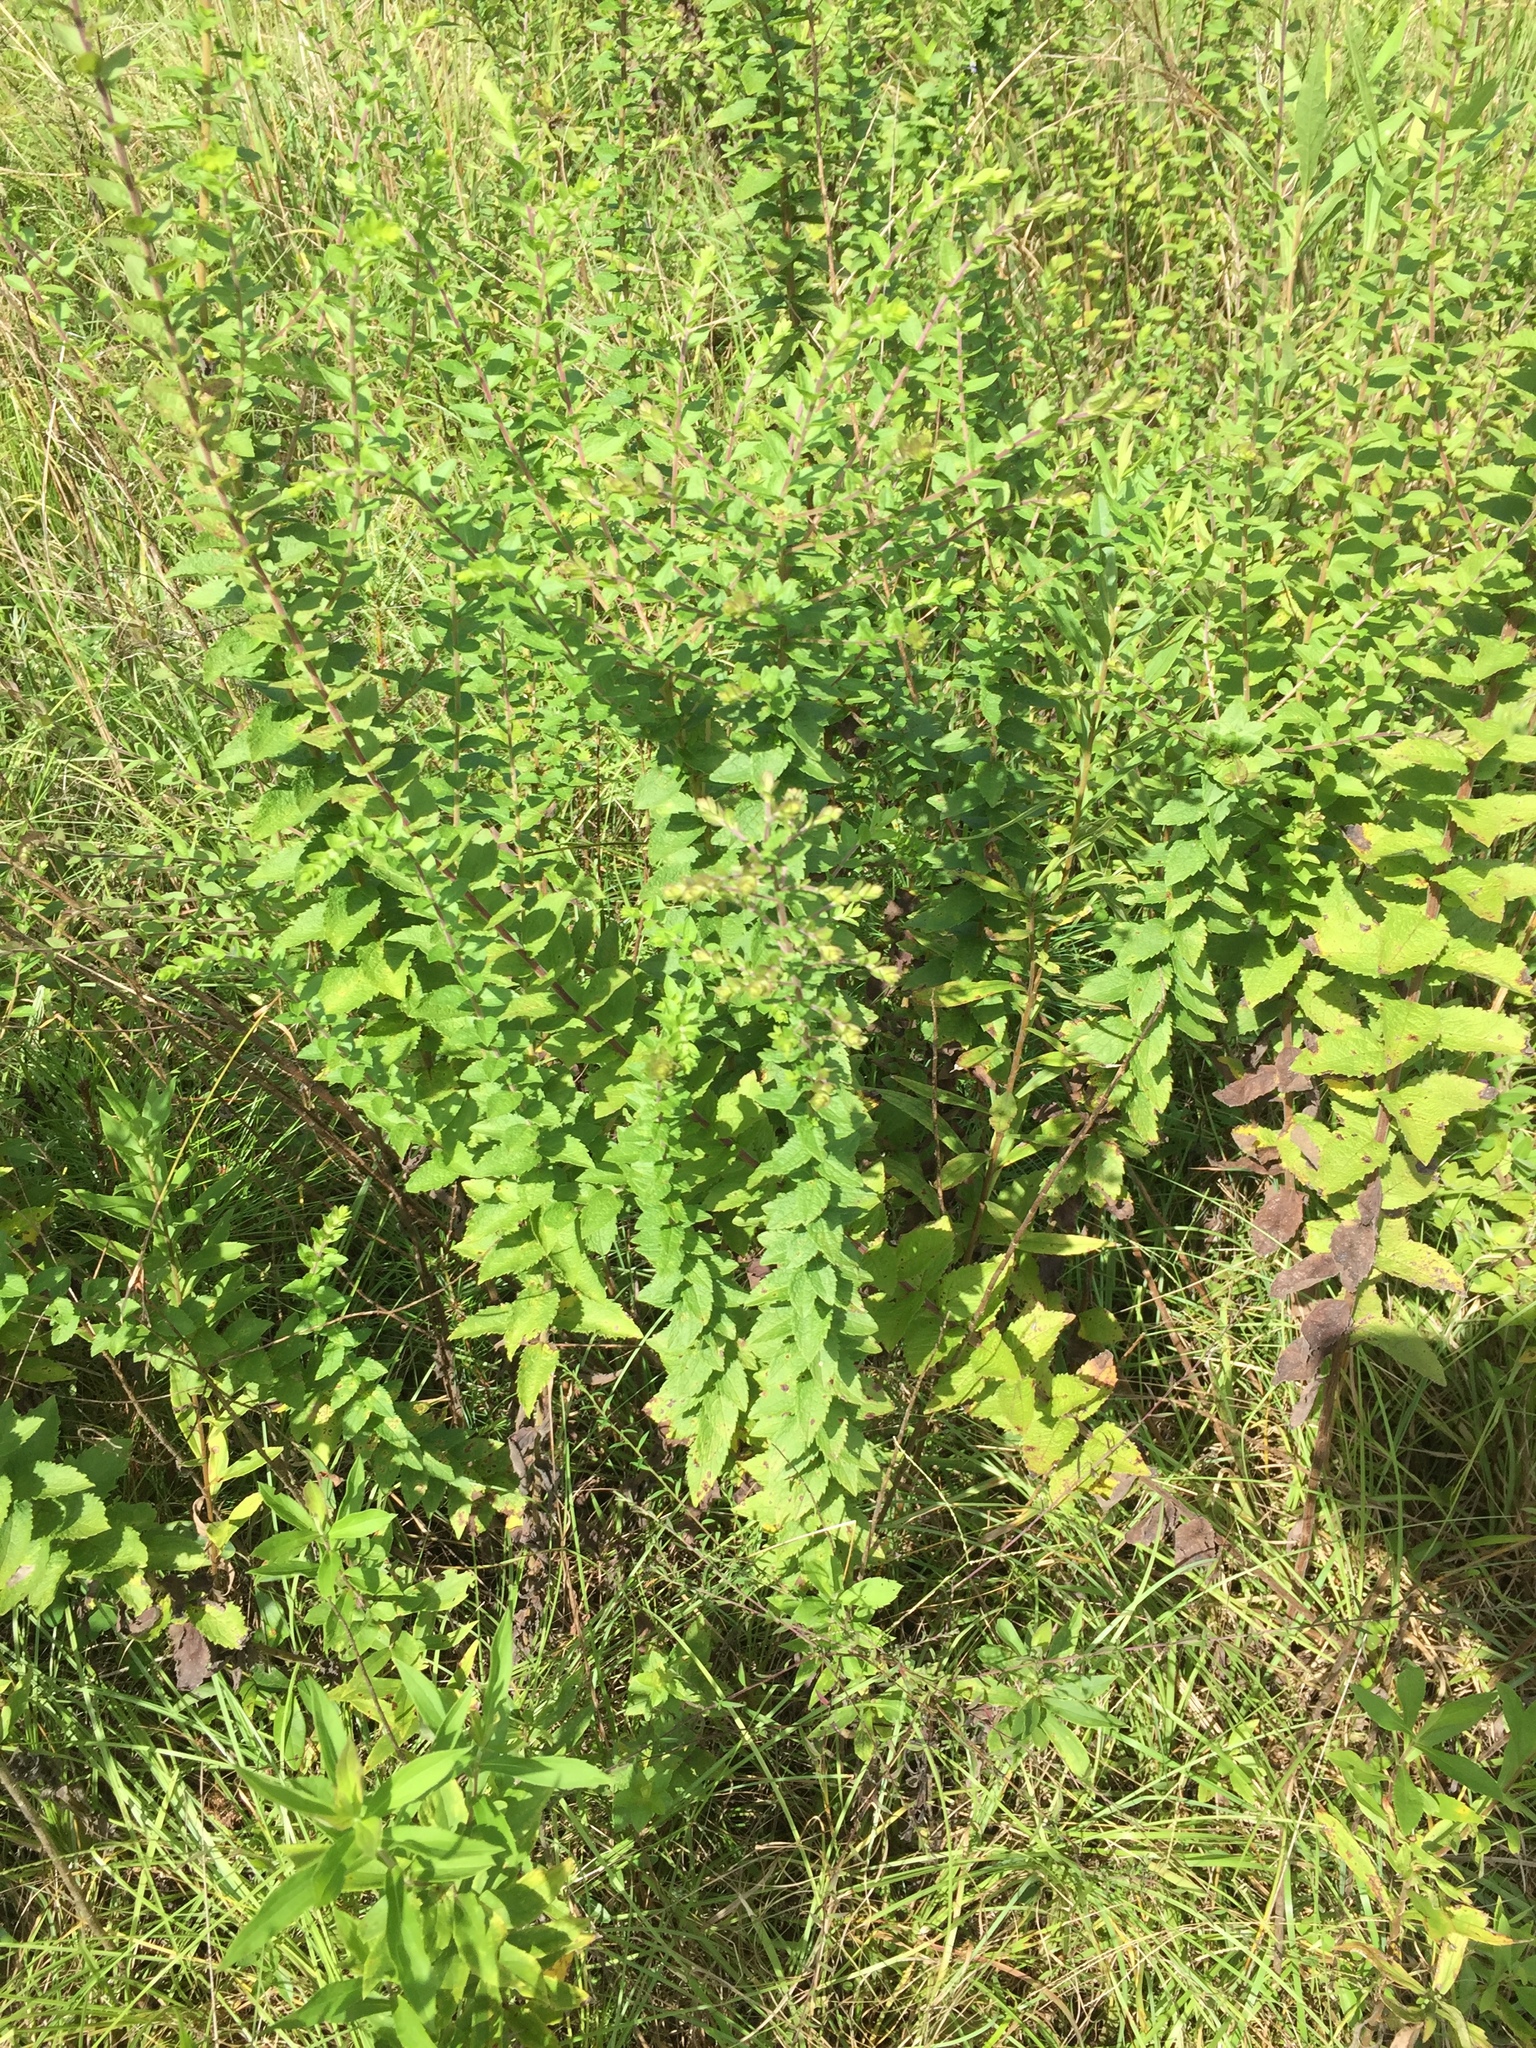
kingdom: Plantae
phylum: Tracheophyta
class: Magnoliopsida
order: Asterales
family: Asteraceae
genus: Solidago
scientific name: Solidago rugosa
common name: Rough-stemmed goldenrod
